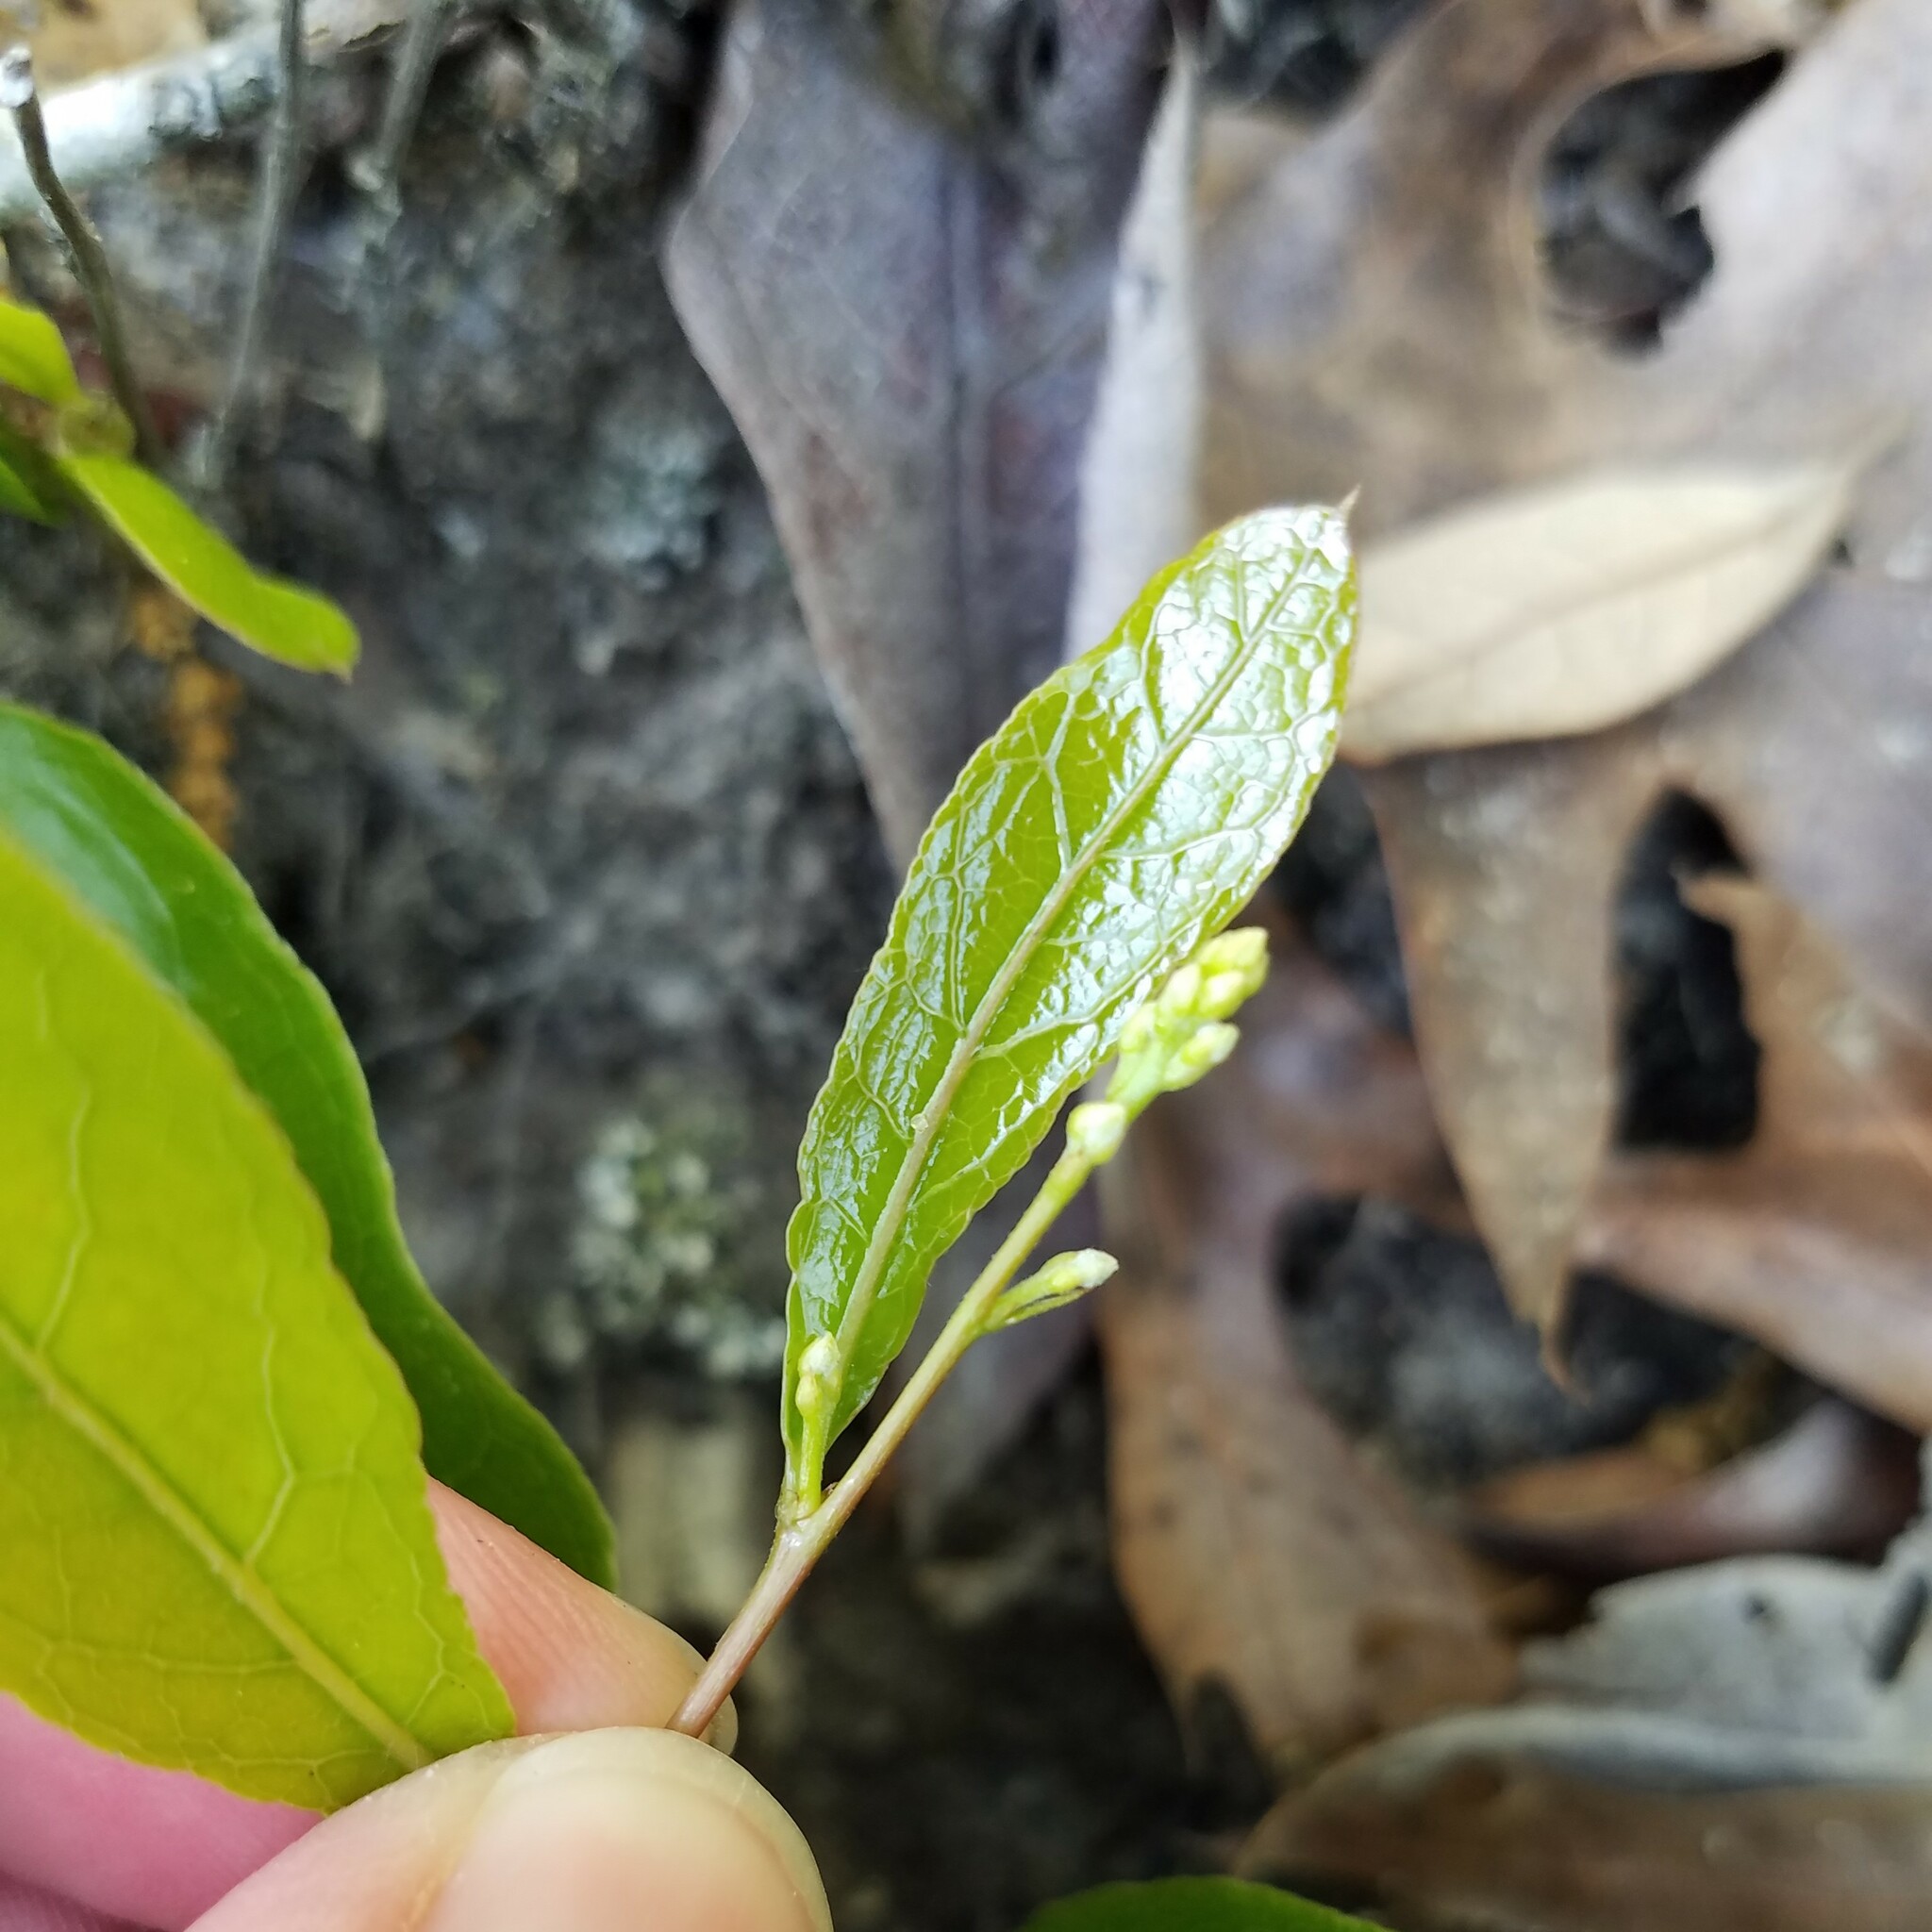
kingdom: Plantae
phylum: Tracheophyta
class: Magnoliopsida
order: Malpighiales
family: Chrysobalanaceae
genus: Geobalanus
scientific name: Geobalanus oblongifolius
